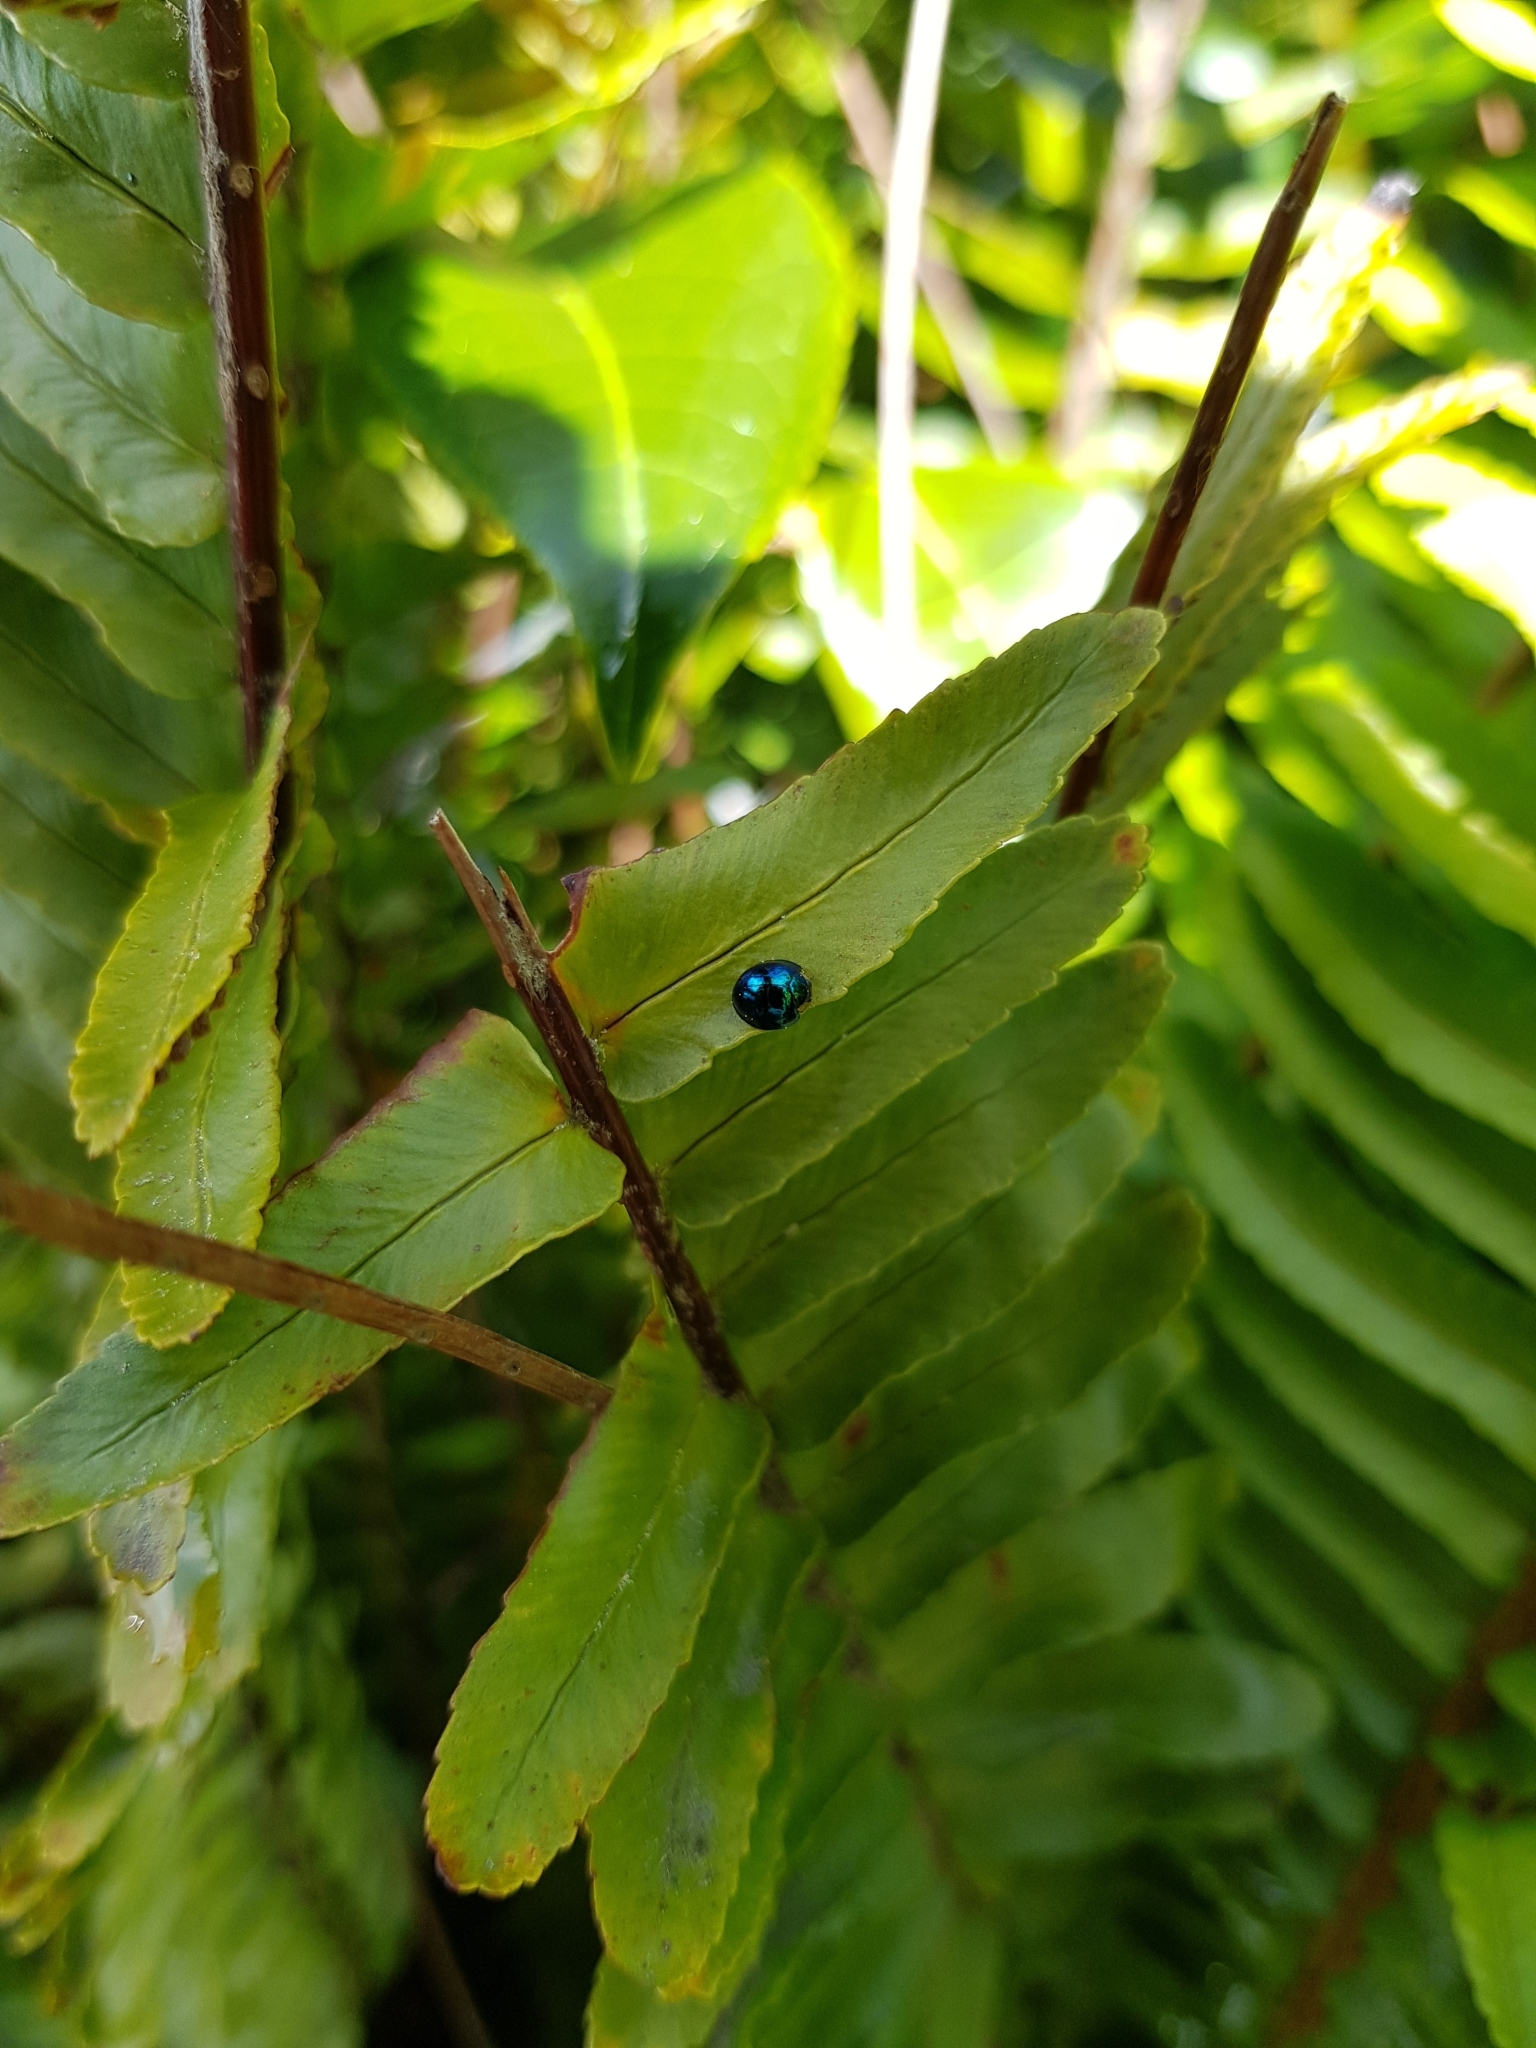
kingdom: Animalia
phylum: Arthropoda
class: Insecta
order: Coleoptera
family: Coccinellidae
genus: Halmus
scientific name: Halmus chalybeus
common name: Steel blue ladybird beetle
